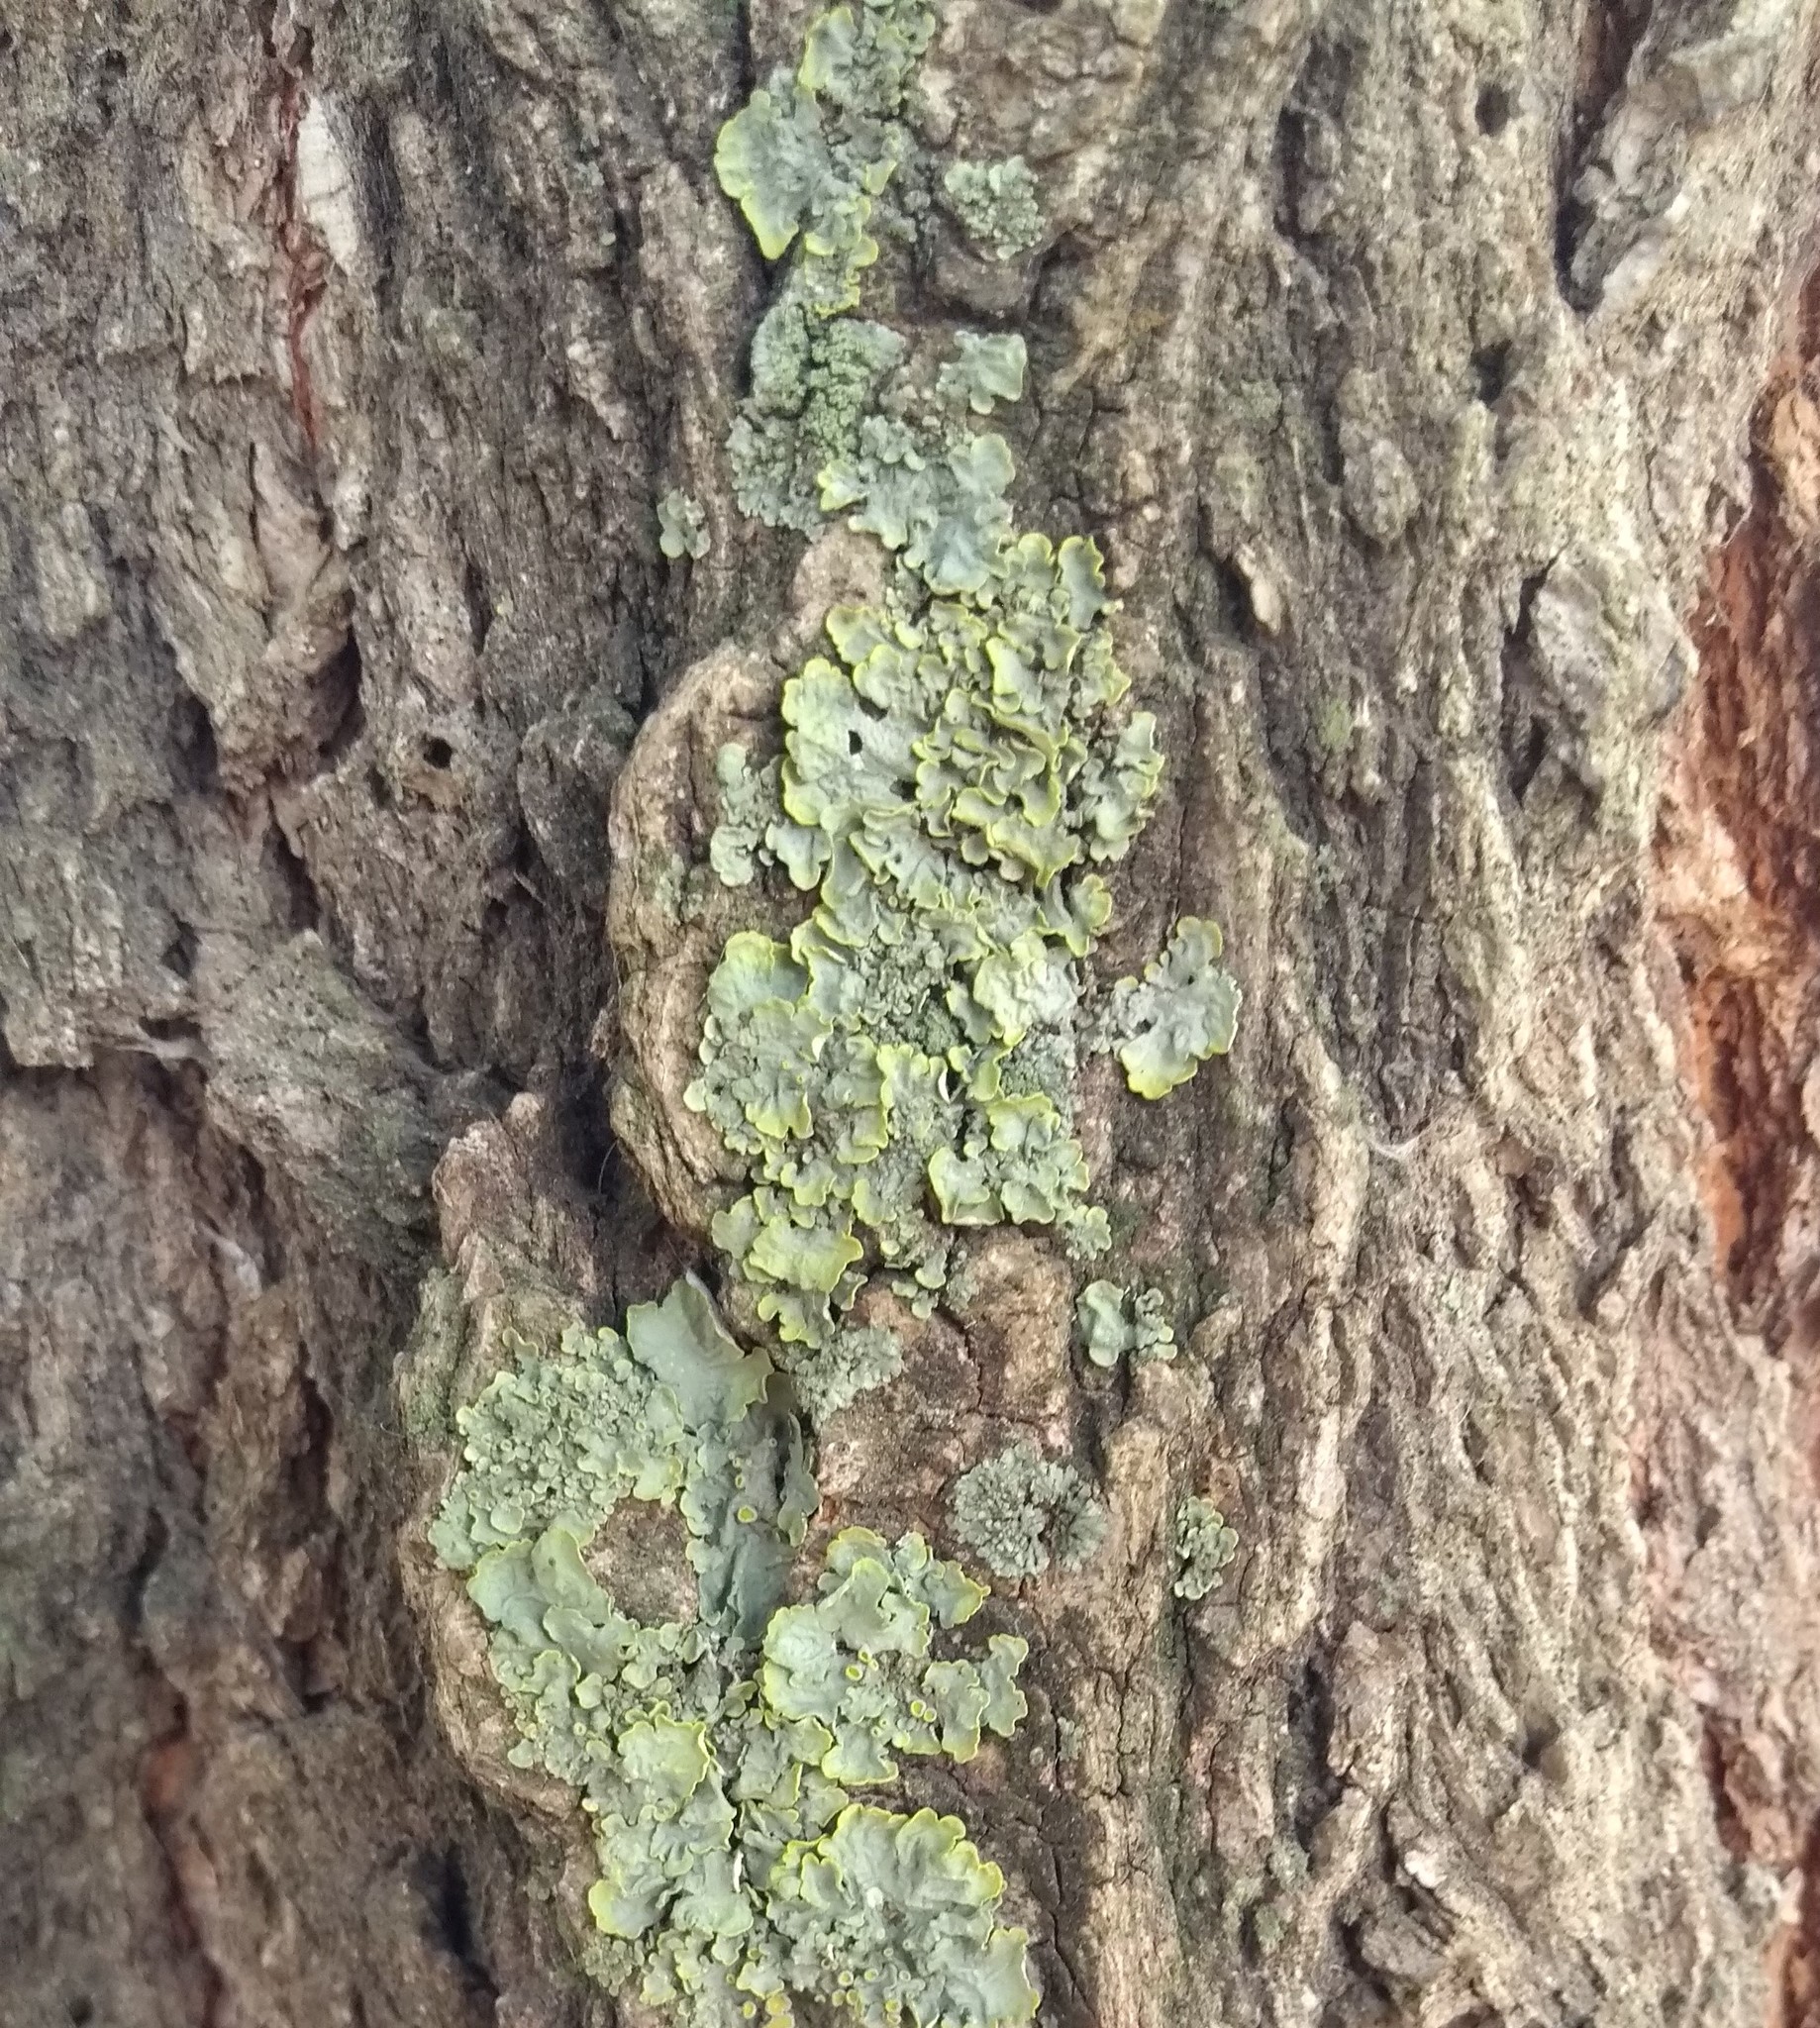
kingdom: Fungi
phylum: Ascomycota
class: Lecanoromycetes
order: Teloschistales
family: Teloschistaceae
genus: Xanthoria
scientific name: Xanthoria parietina
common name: Common orange lichen
